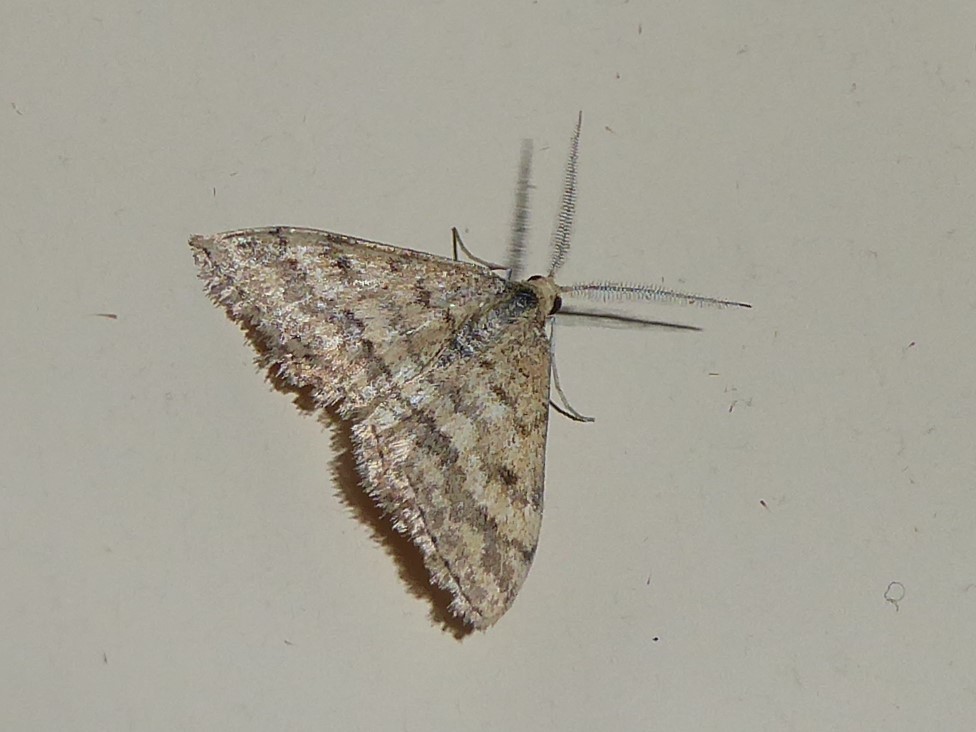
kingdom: Animalia
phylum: Arthropoda
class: Insecta
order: Lepidoptera
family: Geometridae
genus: Scopula
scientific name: Scopula rubraria
